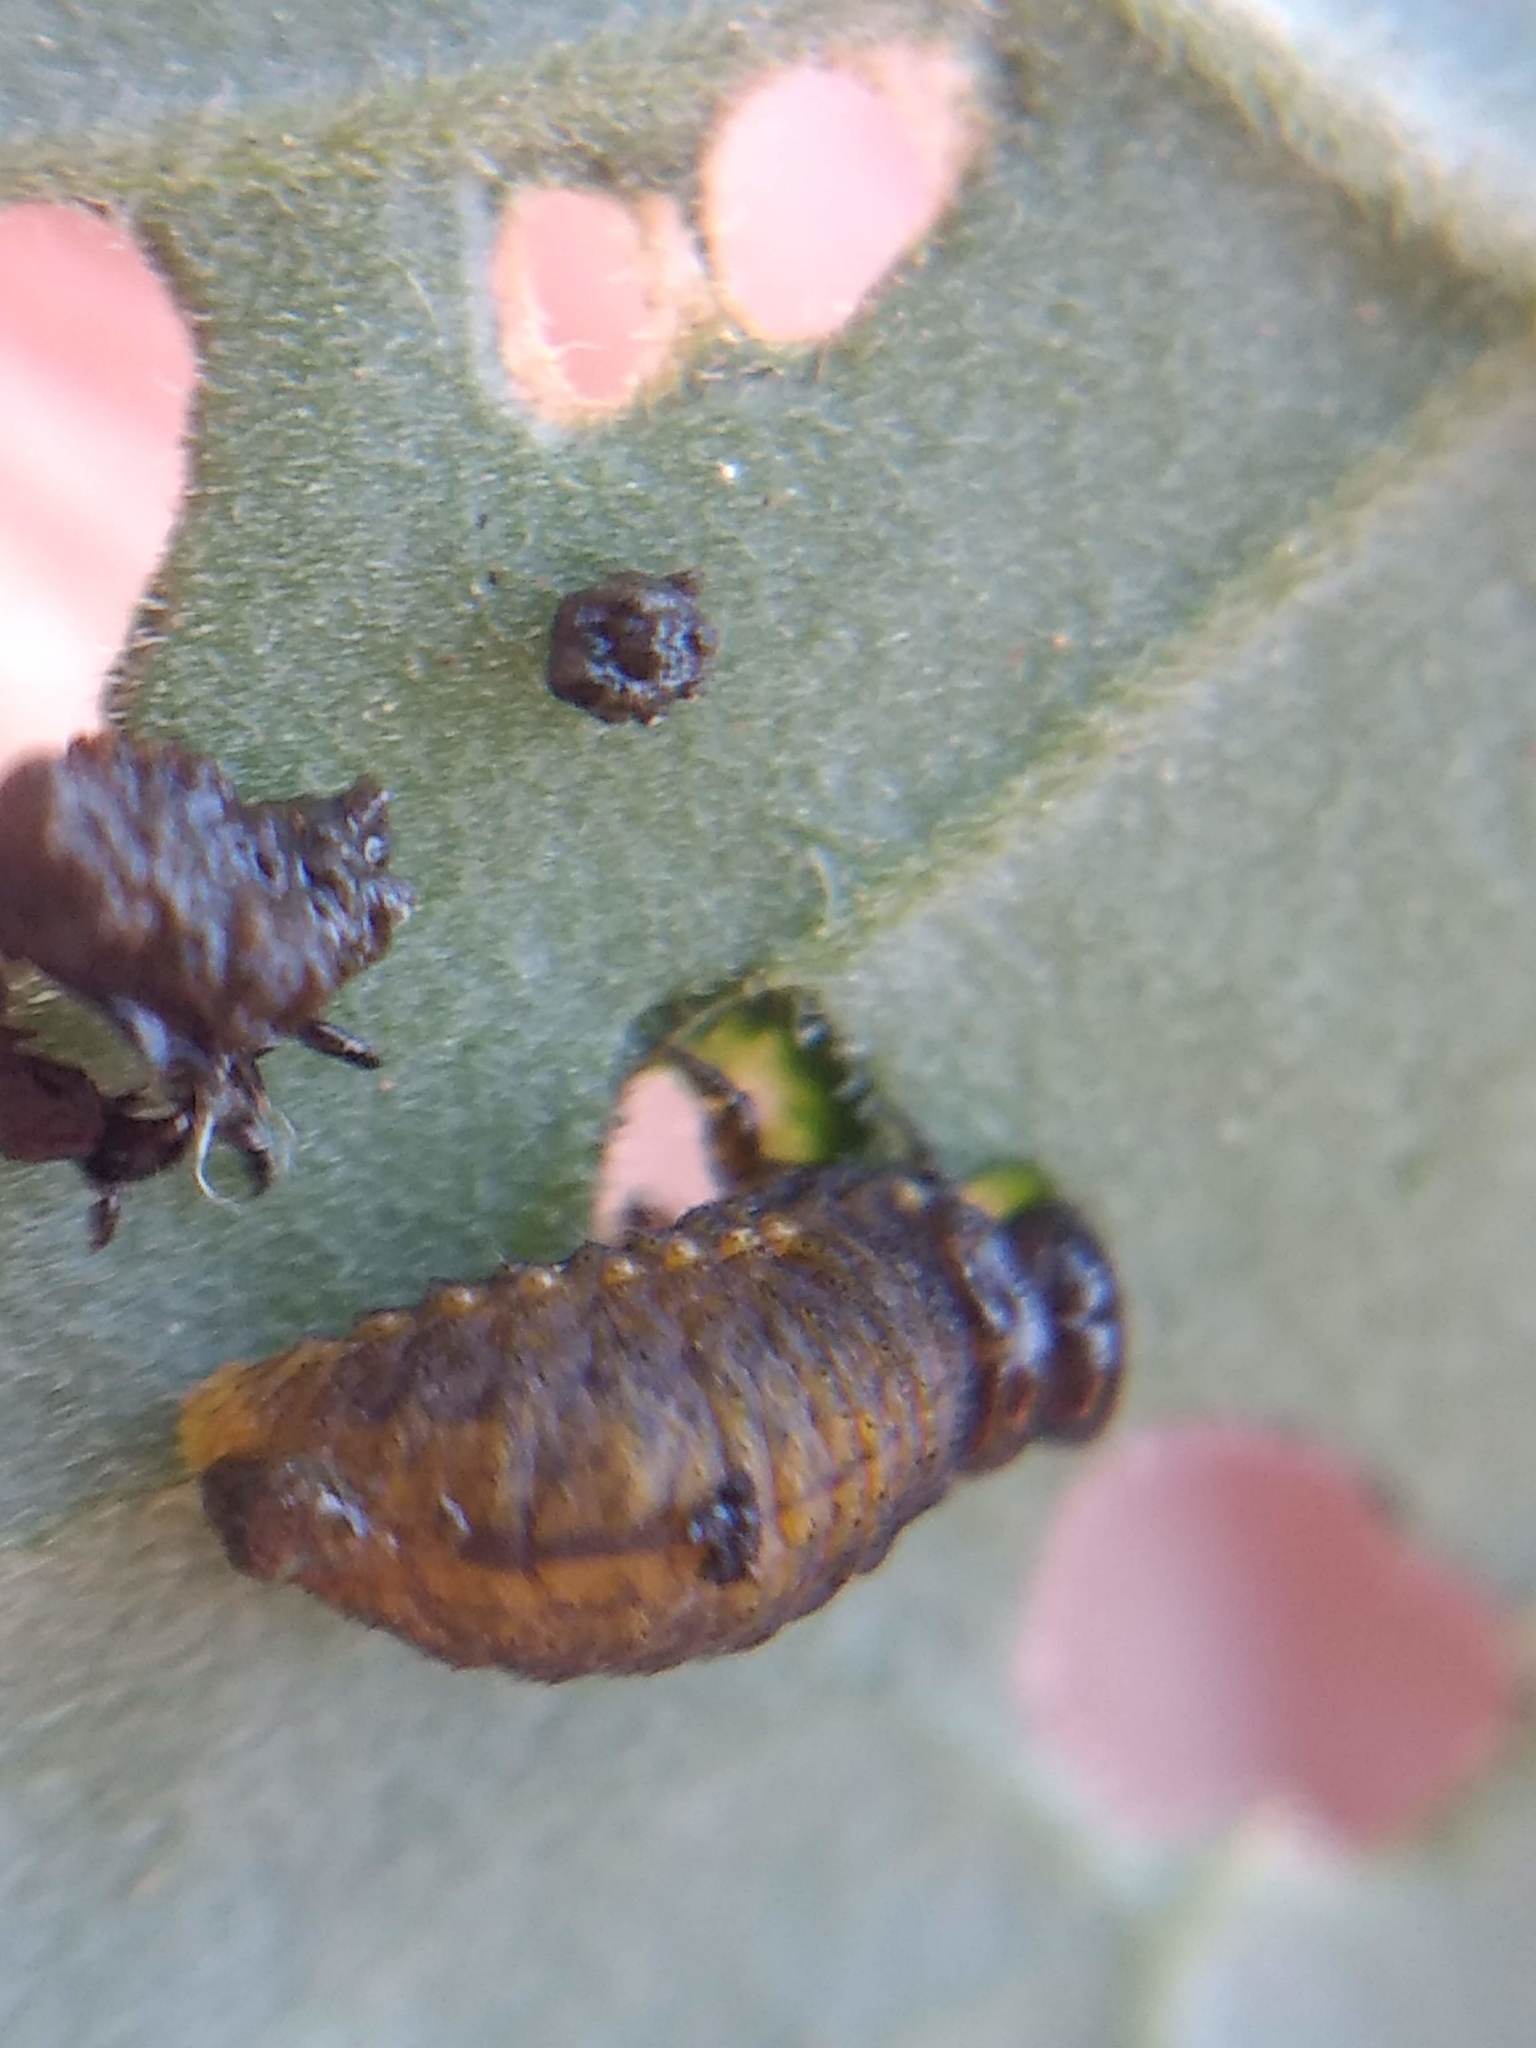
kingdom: Animalia
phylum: Arthropoda
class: Insecta
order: Coleoptera
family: Chrysomelidae
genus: Lema
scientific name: Lema daturaphila
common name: Leaf beetle
